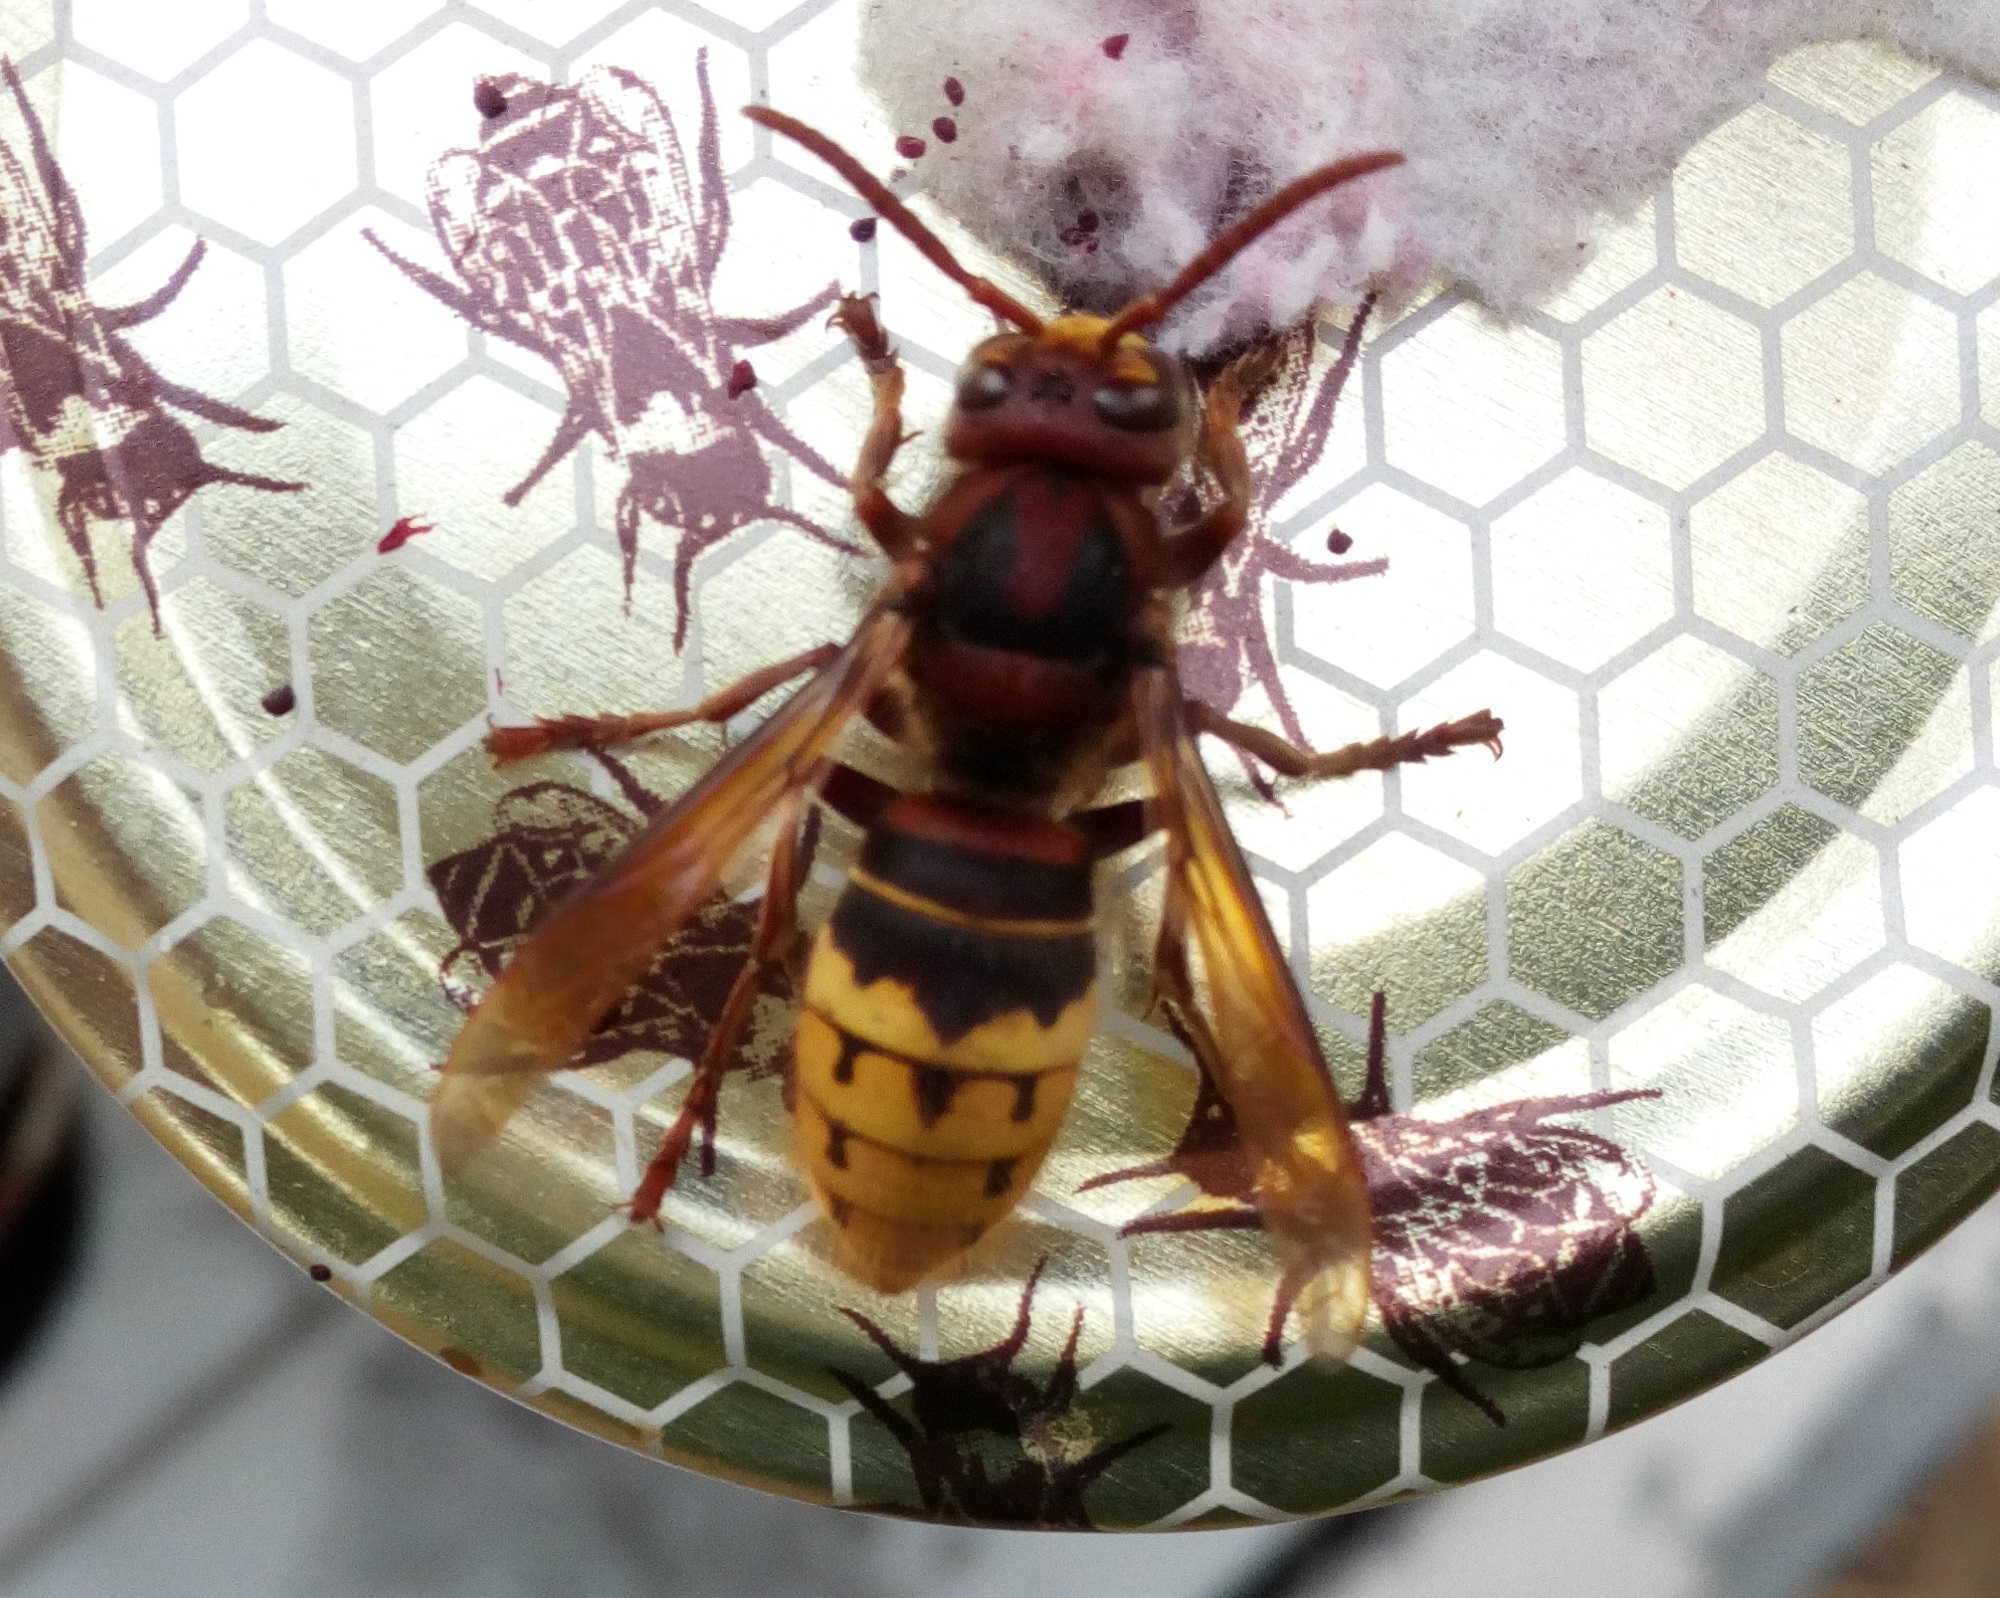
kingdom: Animalia
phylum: Arthropoda
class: Insecta
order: Hymenoptera
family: Vespidae
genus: Vespa
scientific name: Vespa crabro
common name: Hornet
